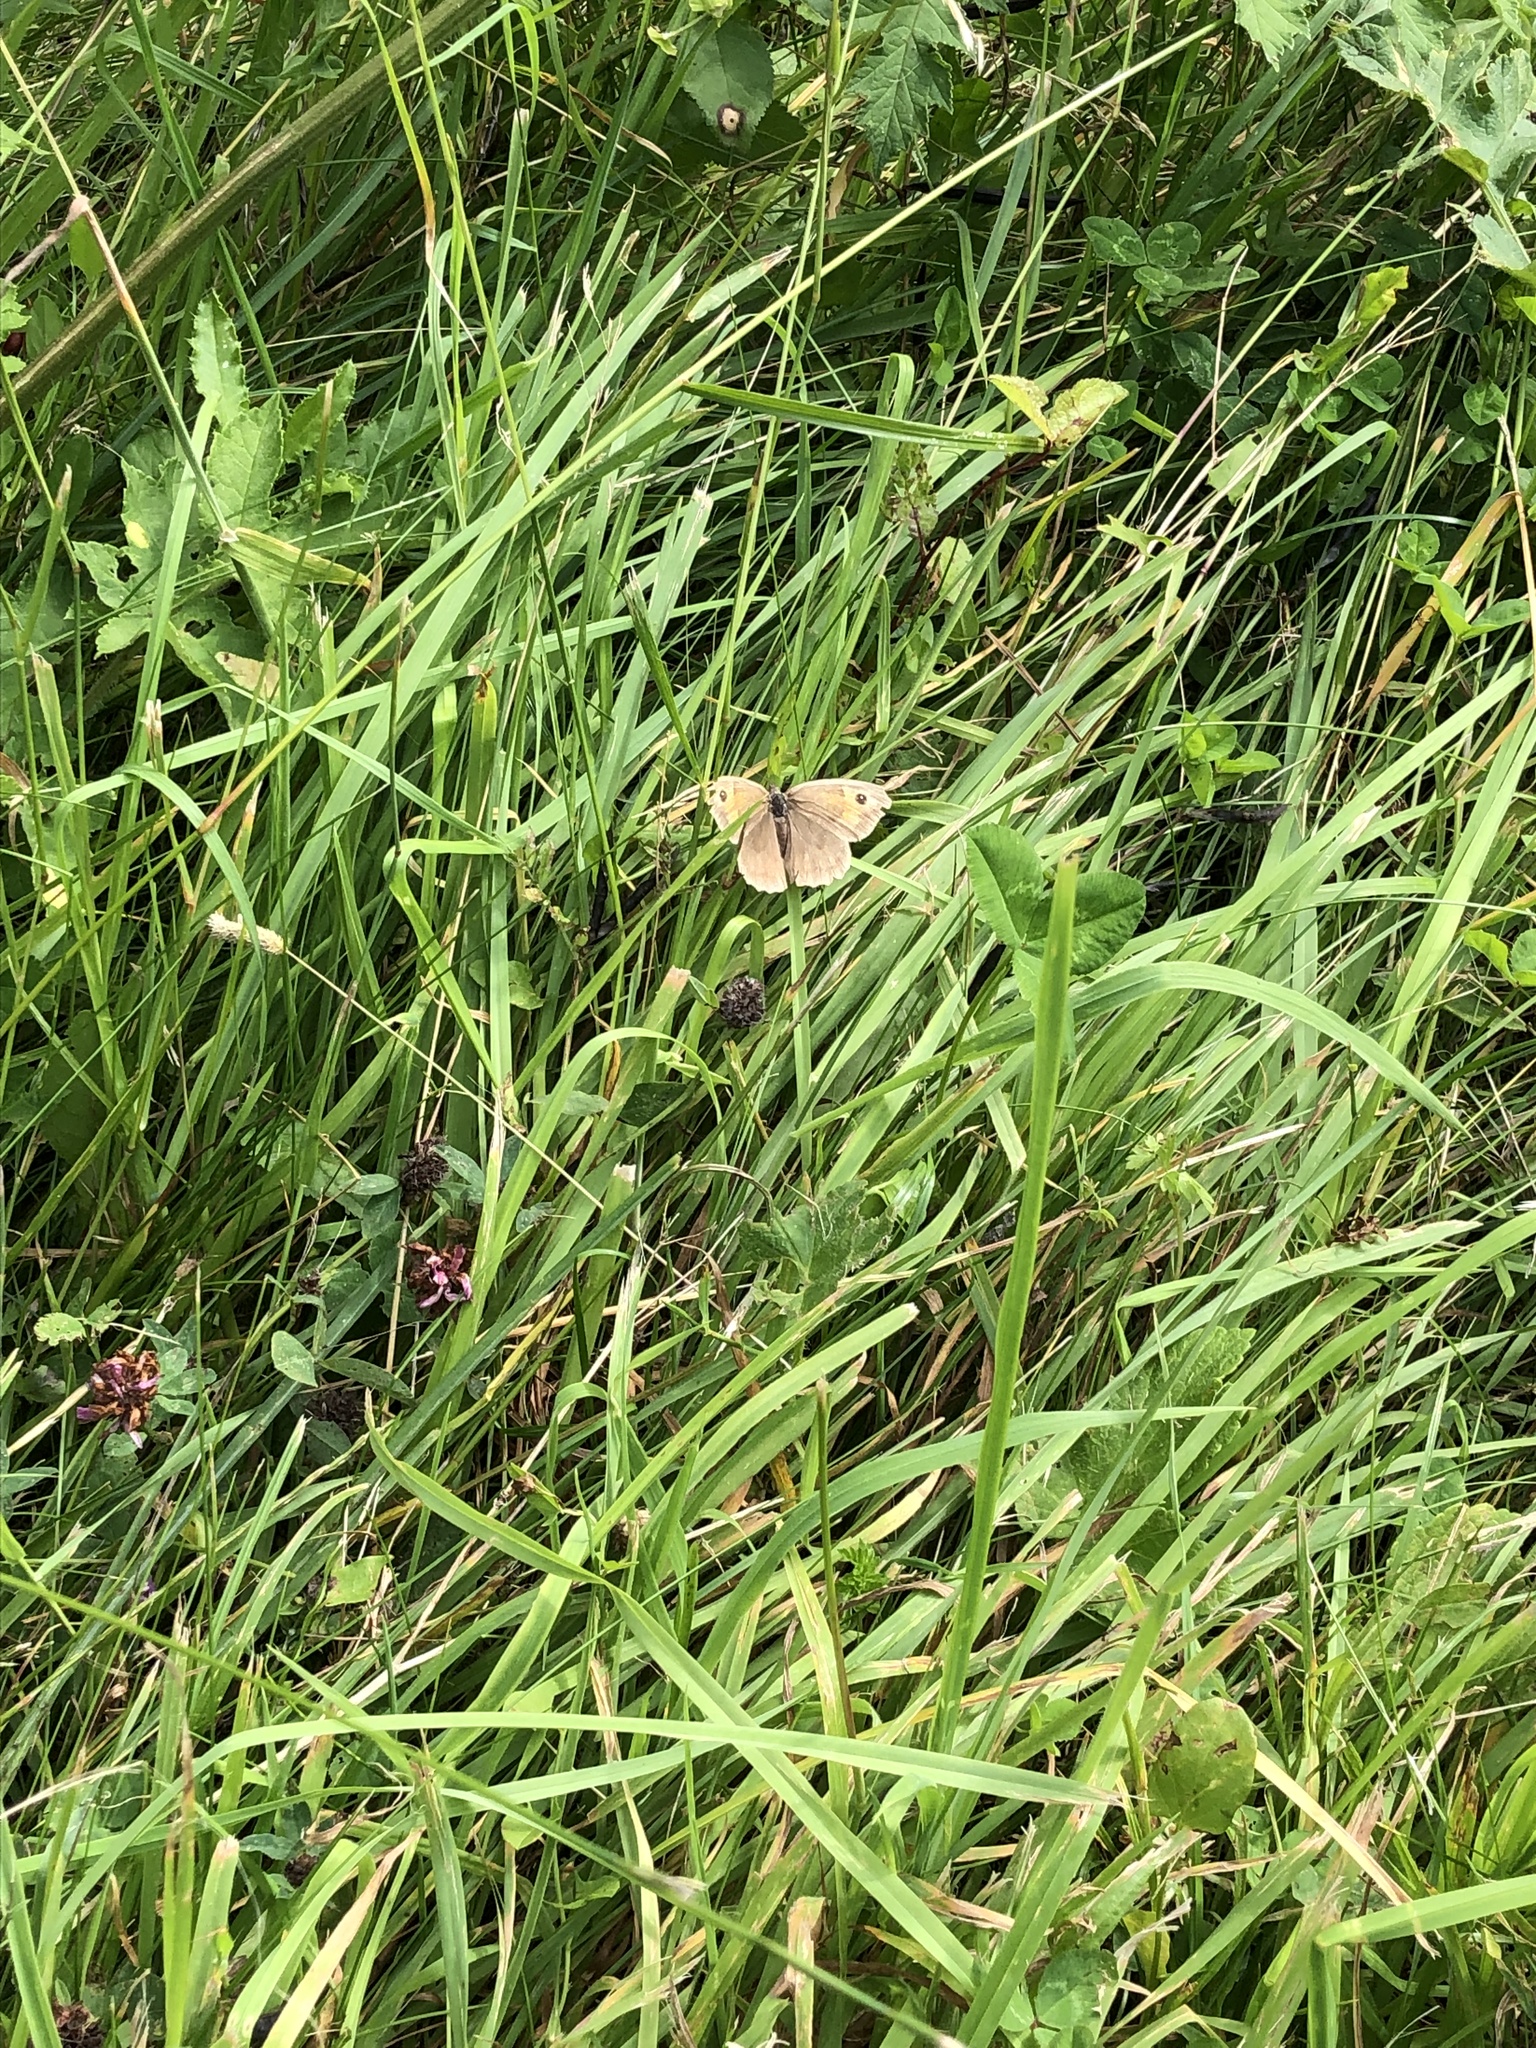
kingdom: Animalia
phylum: Arthropoda
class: Insecta
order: Lepidoptera
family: Nymphalidae
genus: Maniola
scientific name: Maniola jurtina
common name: Meadow brown
